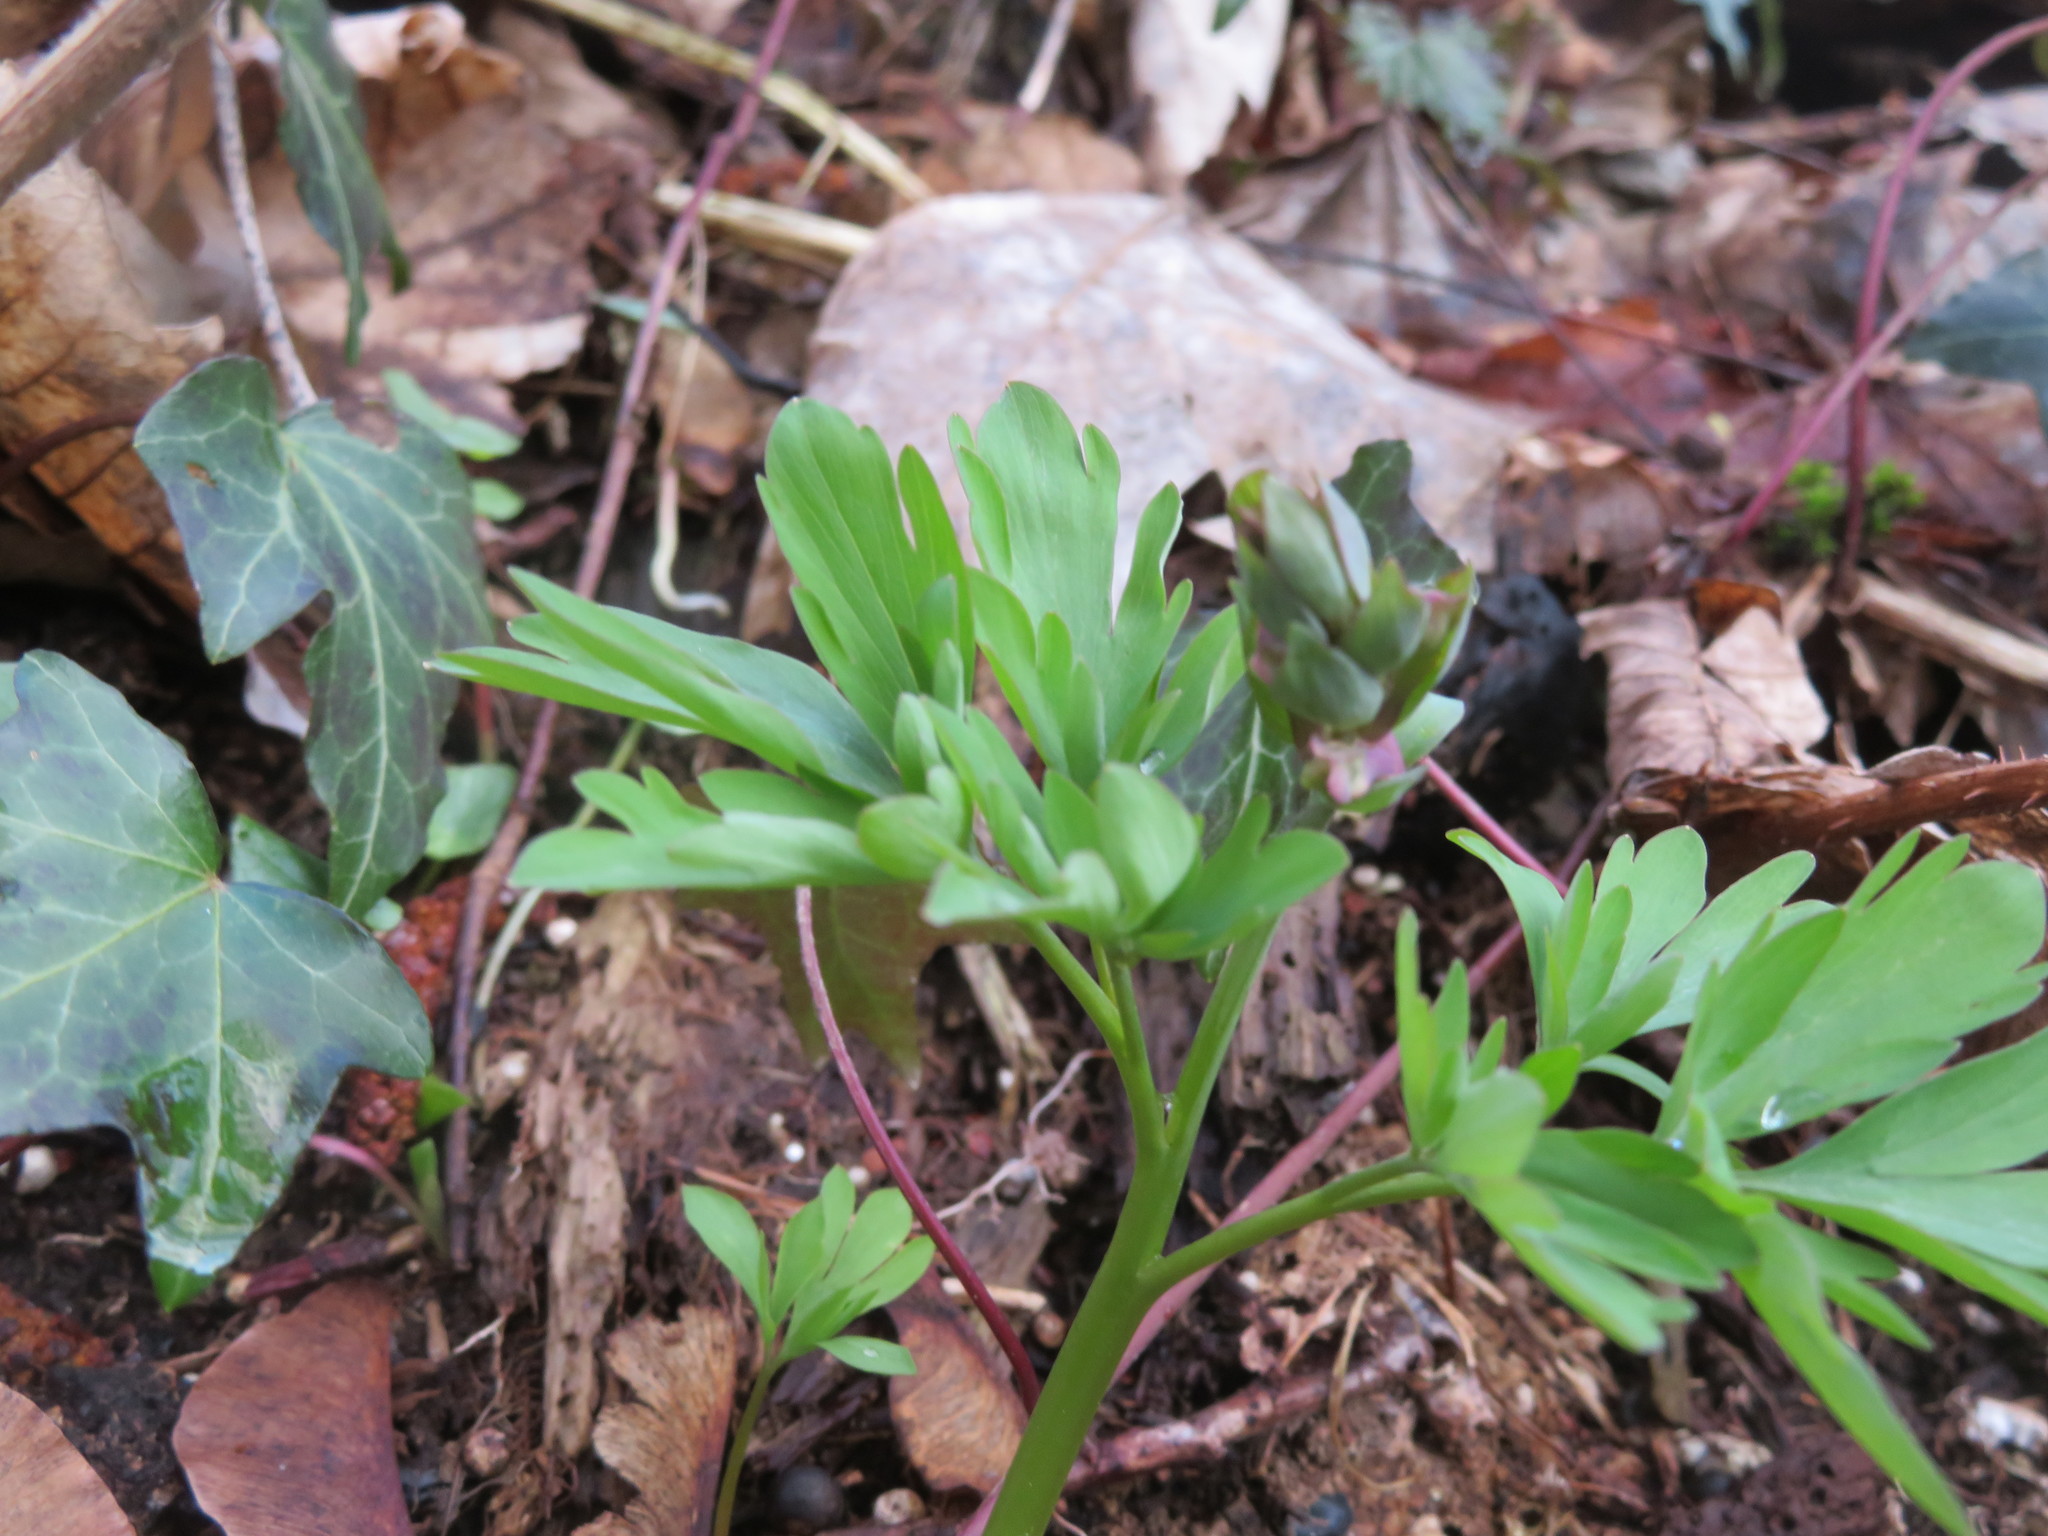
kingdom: Plantae
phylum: Tracheophyta
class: Magnoliopsida
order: Ranunculales
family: Papaveraceae
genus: Corydalis
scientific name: Corydalis cava
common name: Hollowroot
